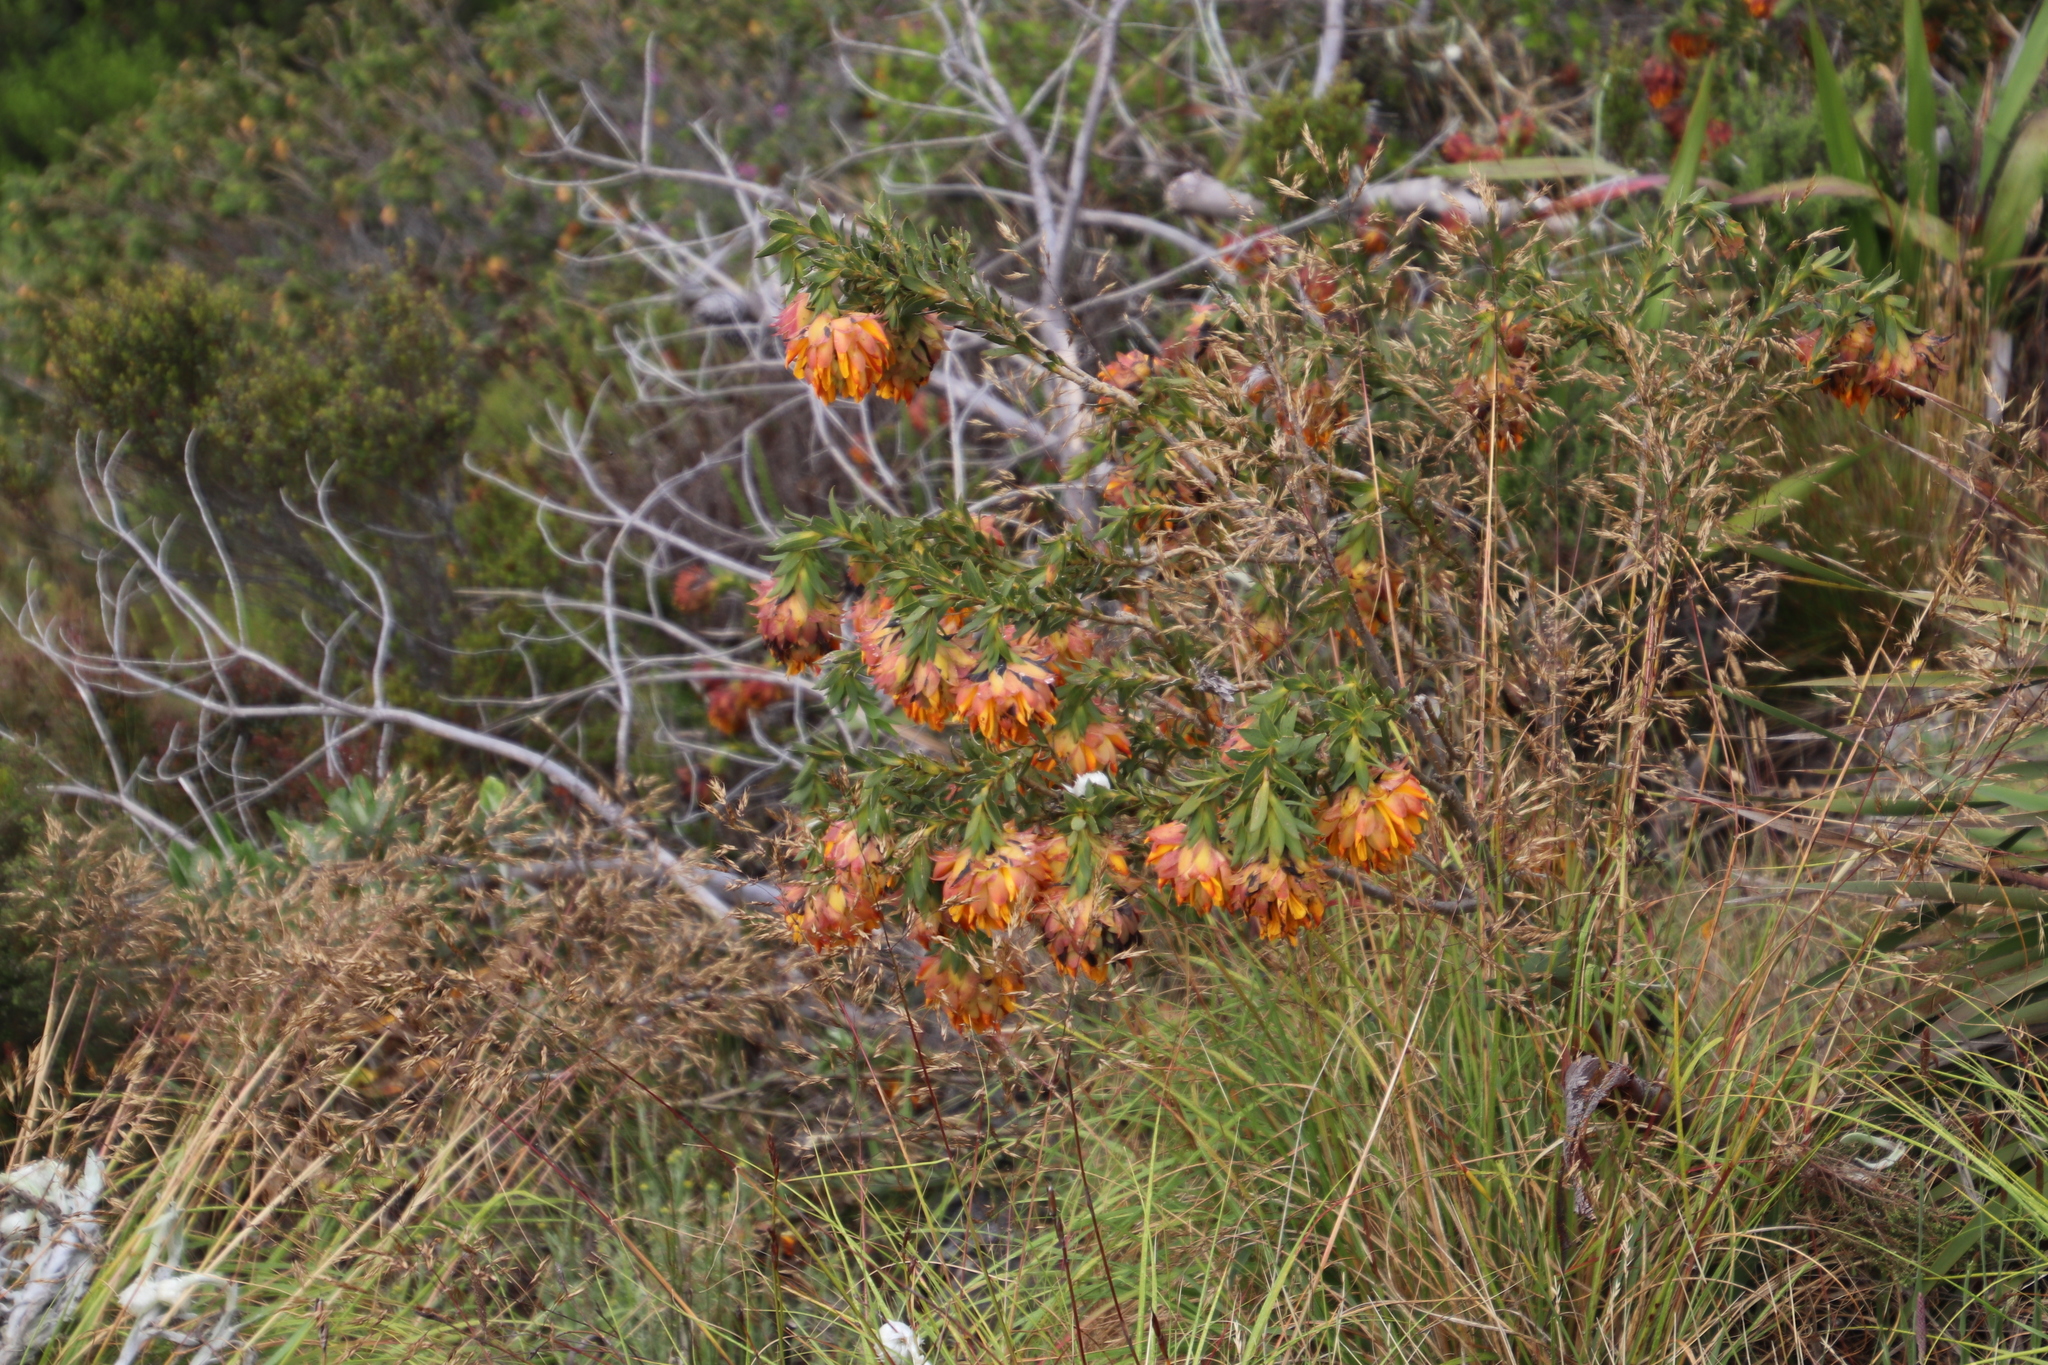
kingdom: Plantae
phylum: Tracheophyta
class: Magnoliopsida
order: Fabales
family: Fabaceae
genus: Liparia
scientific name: Liparia splendens
